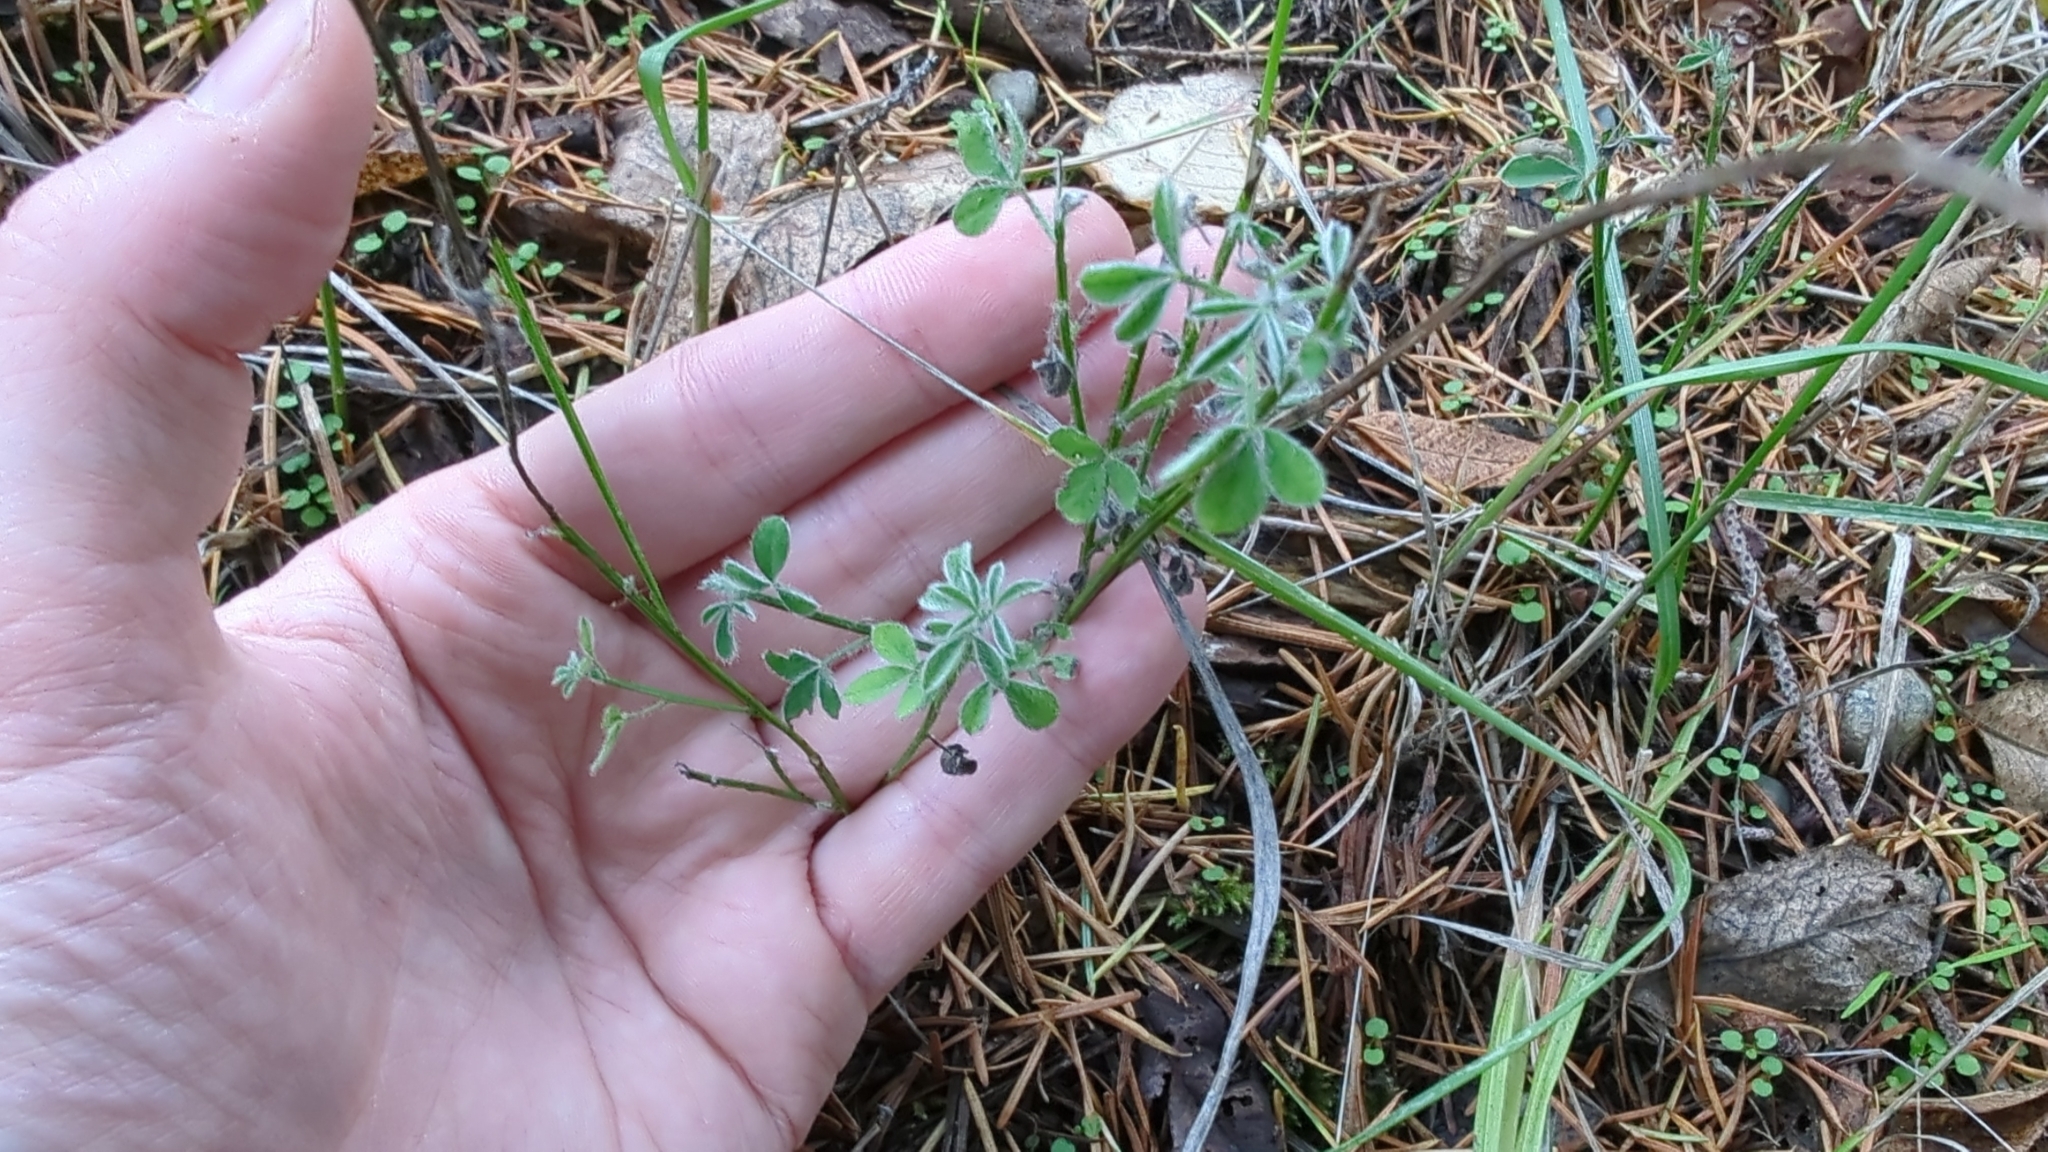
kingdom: Plantae
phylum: Tracheophyta
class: Magnoliopsida
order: Fabales
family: Fabaceae
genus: Cytisus
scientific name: Cytisus scoparius
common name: Scotch broom
